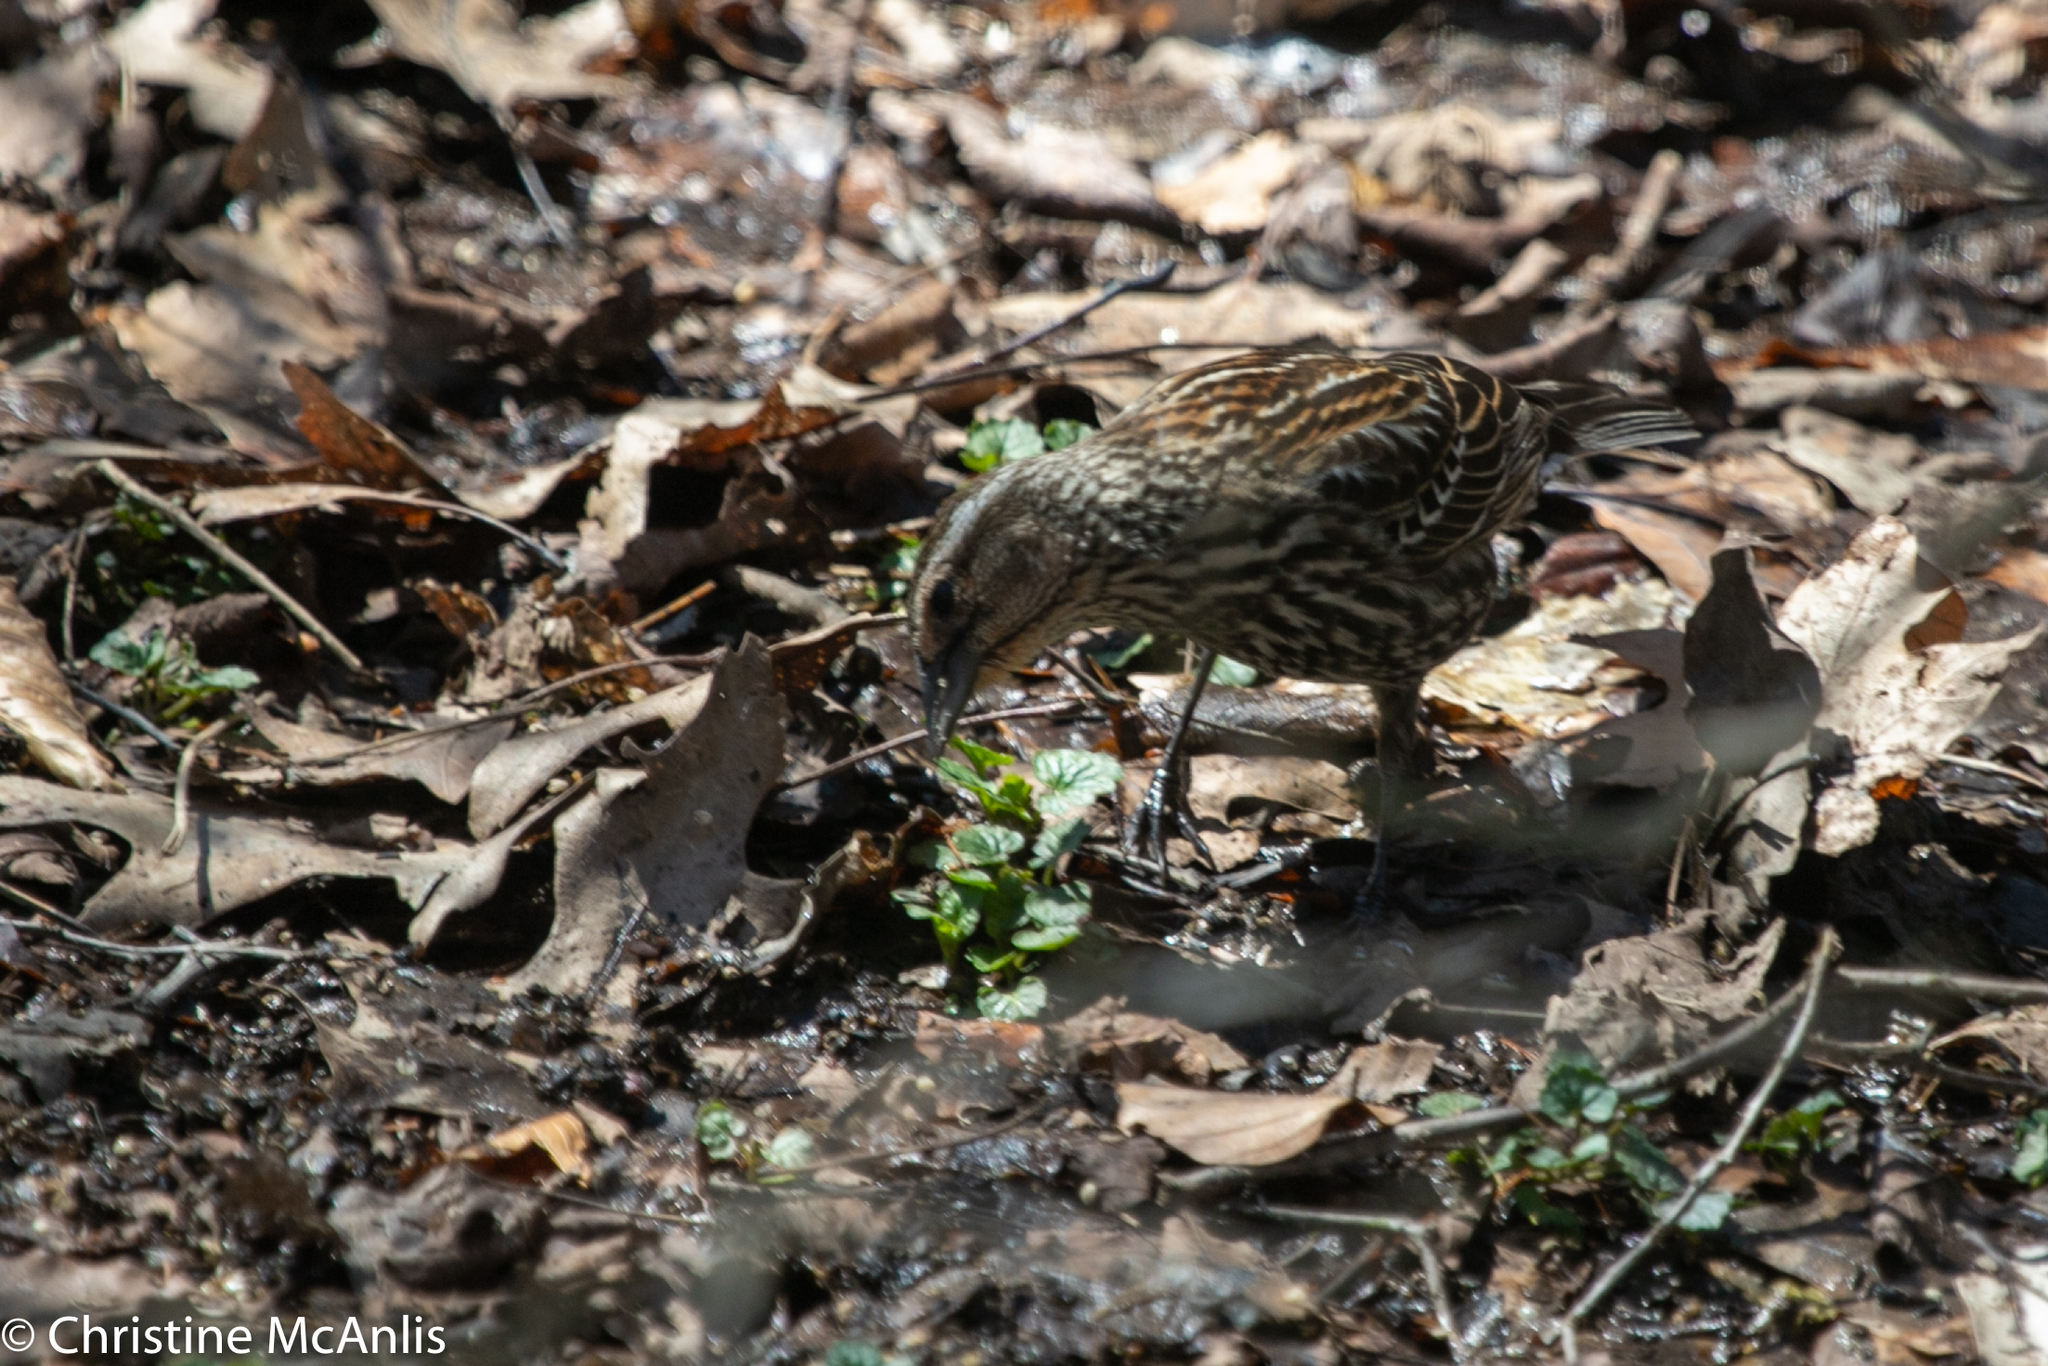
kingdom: Animalia
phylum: Chordata
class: Aves
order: Passeriformes
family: Icteridae
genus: Agelaius
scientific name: Agelaius phoeniceus
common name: Red-winged blackbird
